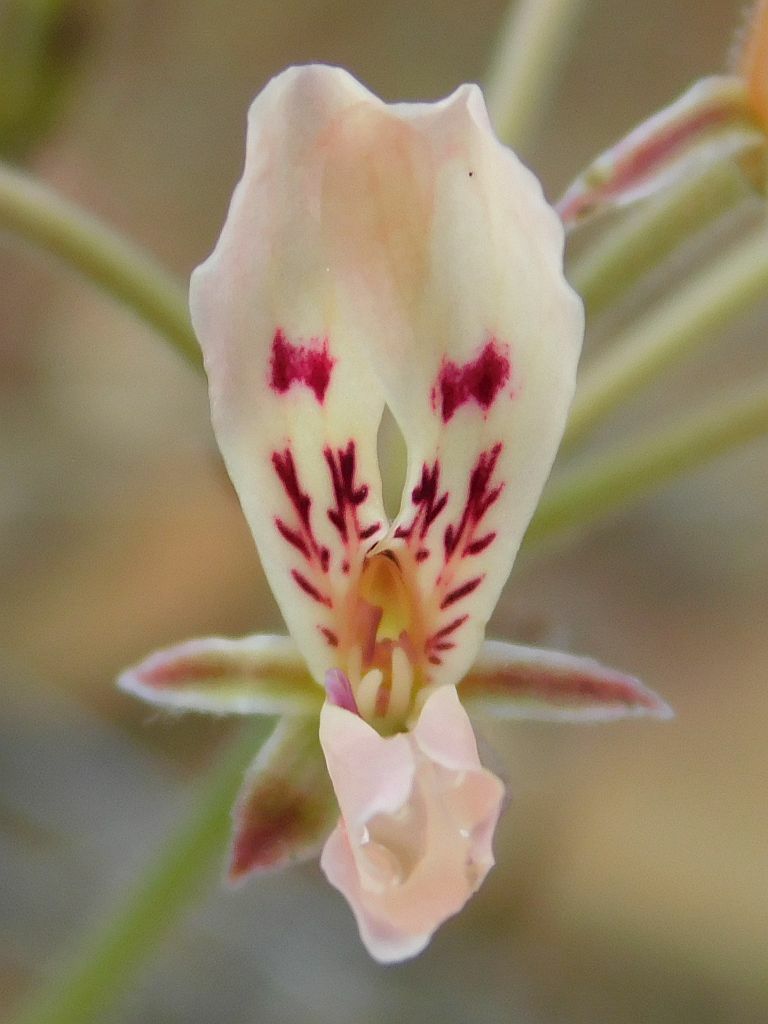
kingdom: Plantae
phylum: Tracheophyta
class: Magnoliopsida
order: Geraniales
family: Geraniaceae
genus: Pelargonium
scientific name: Pelargonium pinnatum
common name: Pinnated pelargonium
